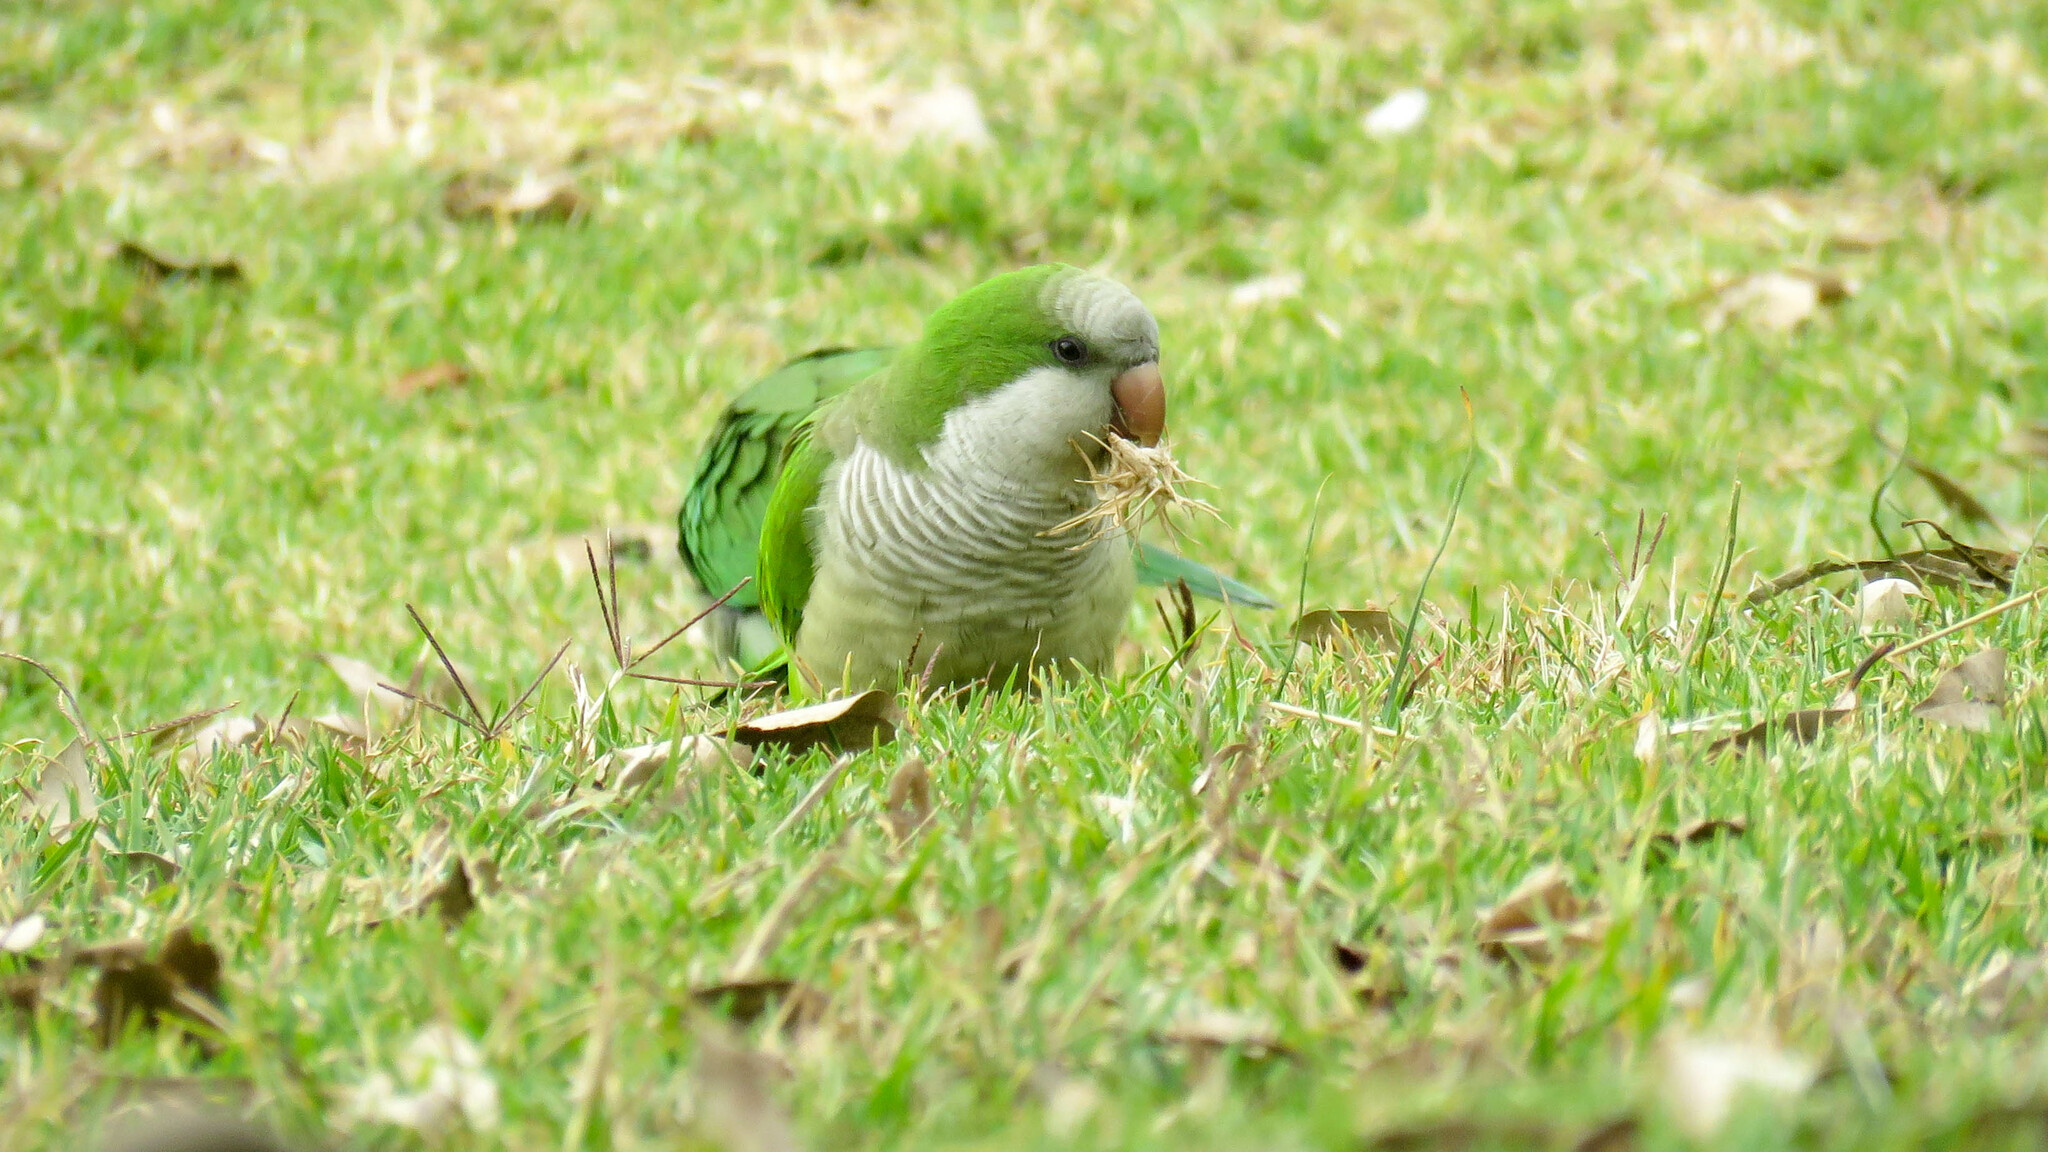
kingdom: Animalia
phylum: Chordata
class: Aves
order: Psittaciformes
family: Psittacidae
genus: Myiopsitta
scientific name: Myiopsitta monachus
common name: Monk parakeet
